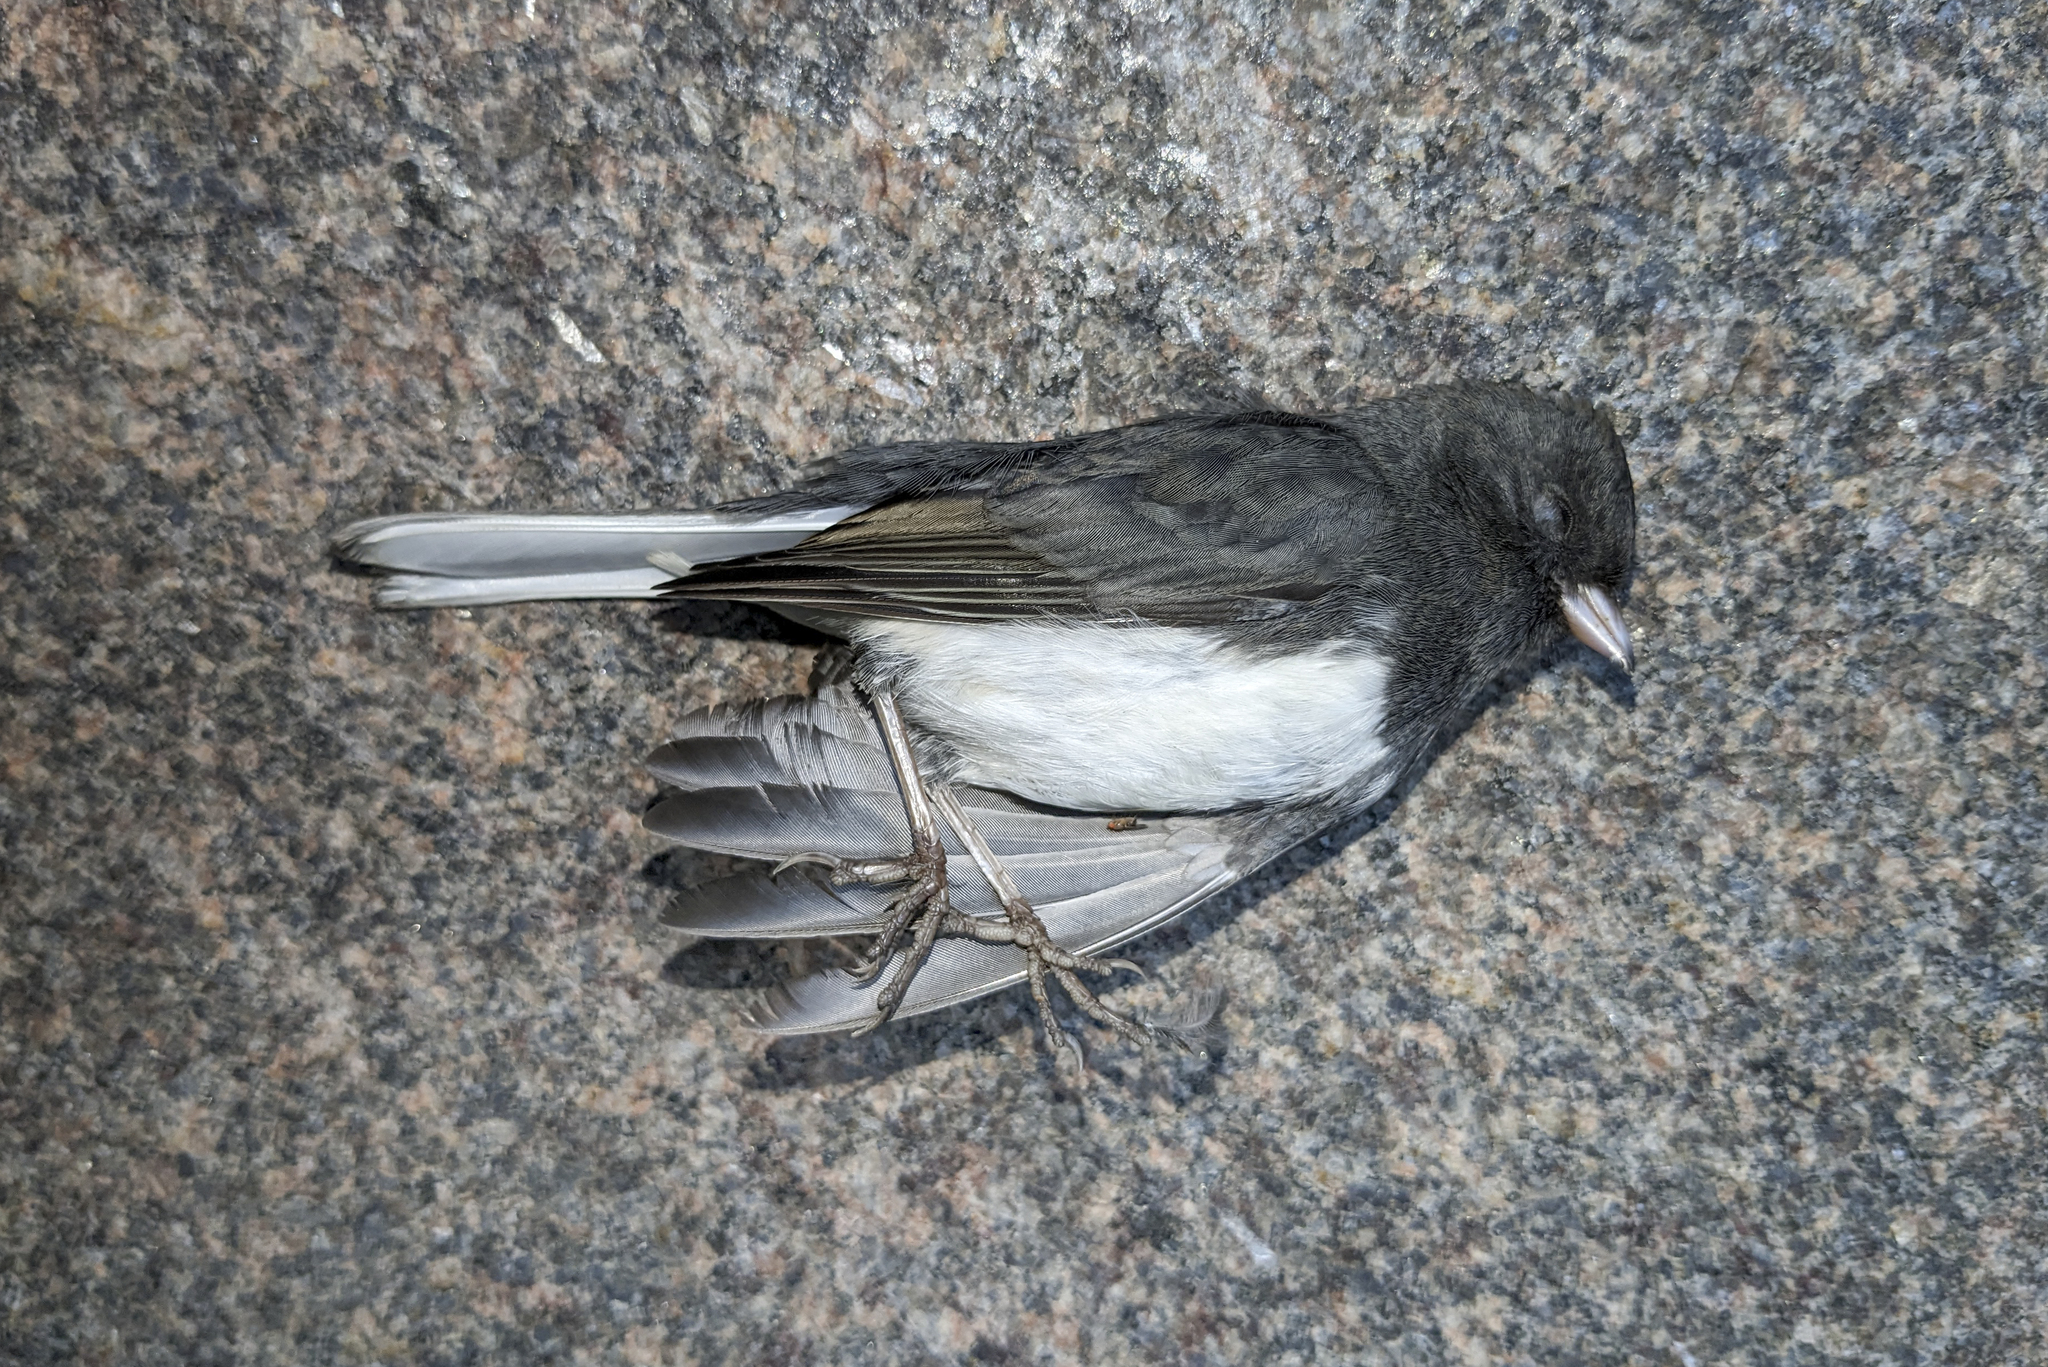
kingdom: Animalia
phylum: Chordata
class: Aves
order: Passeriformes
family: Passerellidae
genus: Junco
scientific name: Junco hyemalis
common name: Dark-eyed junco
